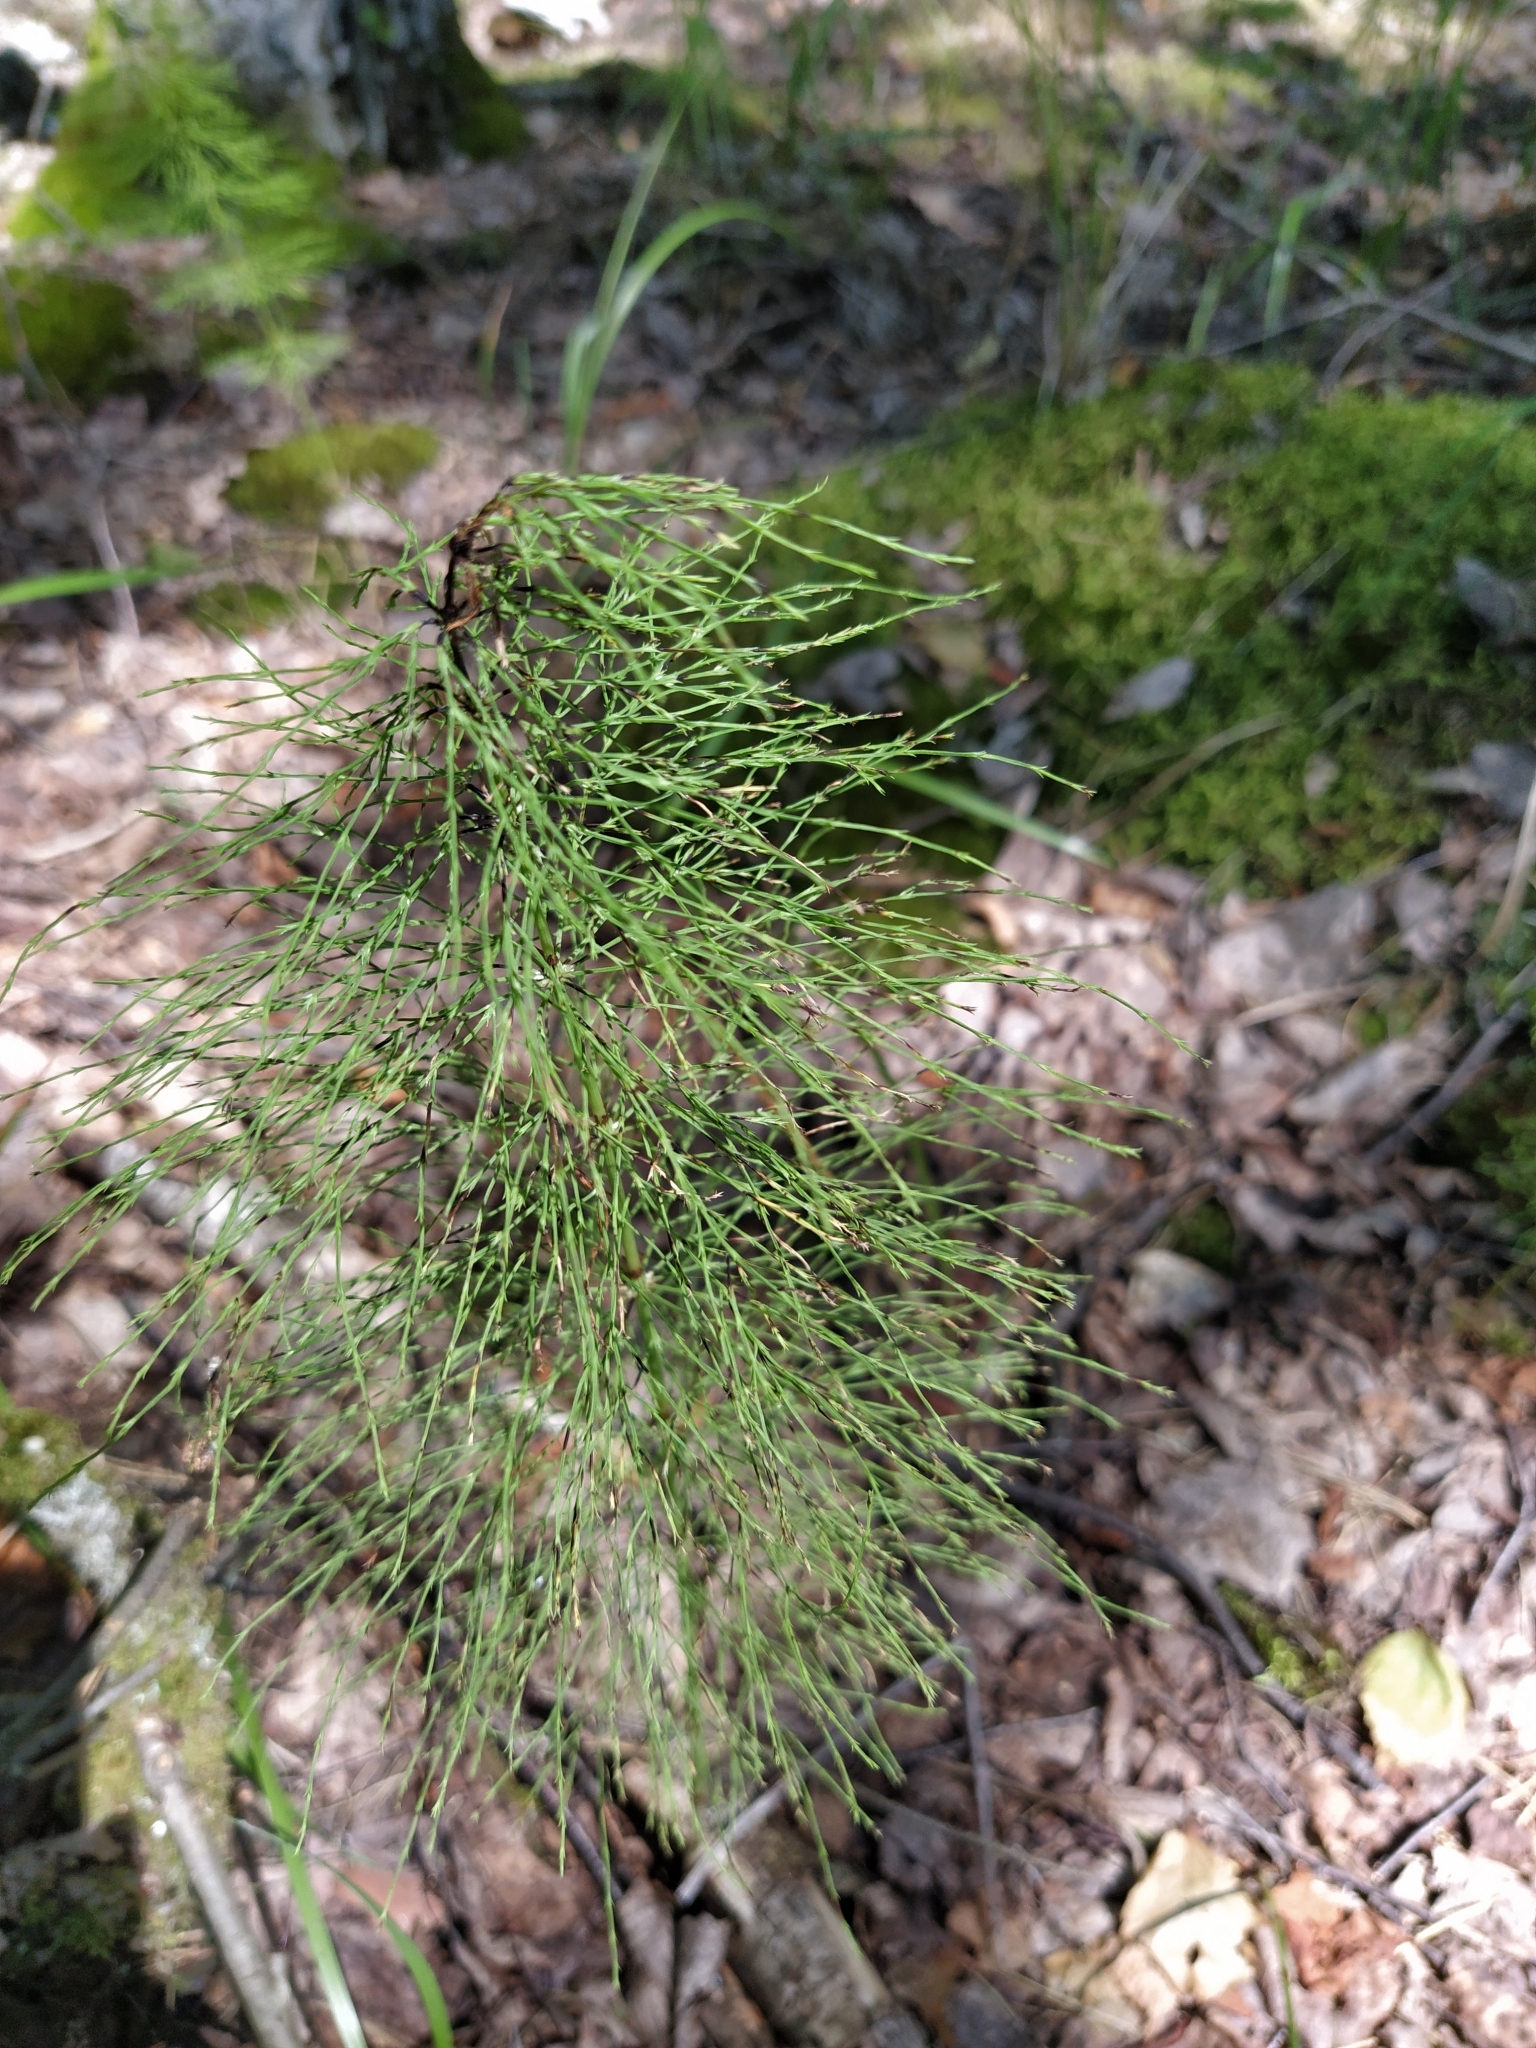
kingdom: Plantae
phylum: Tracheophyta
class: Polypodiopsida
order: Equisetales
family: Equisetaceae
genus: Equisetum
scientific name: Equisetum sylvaticum
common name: Wood horsetail
